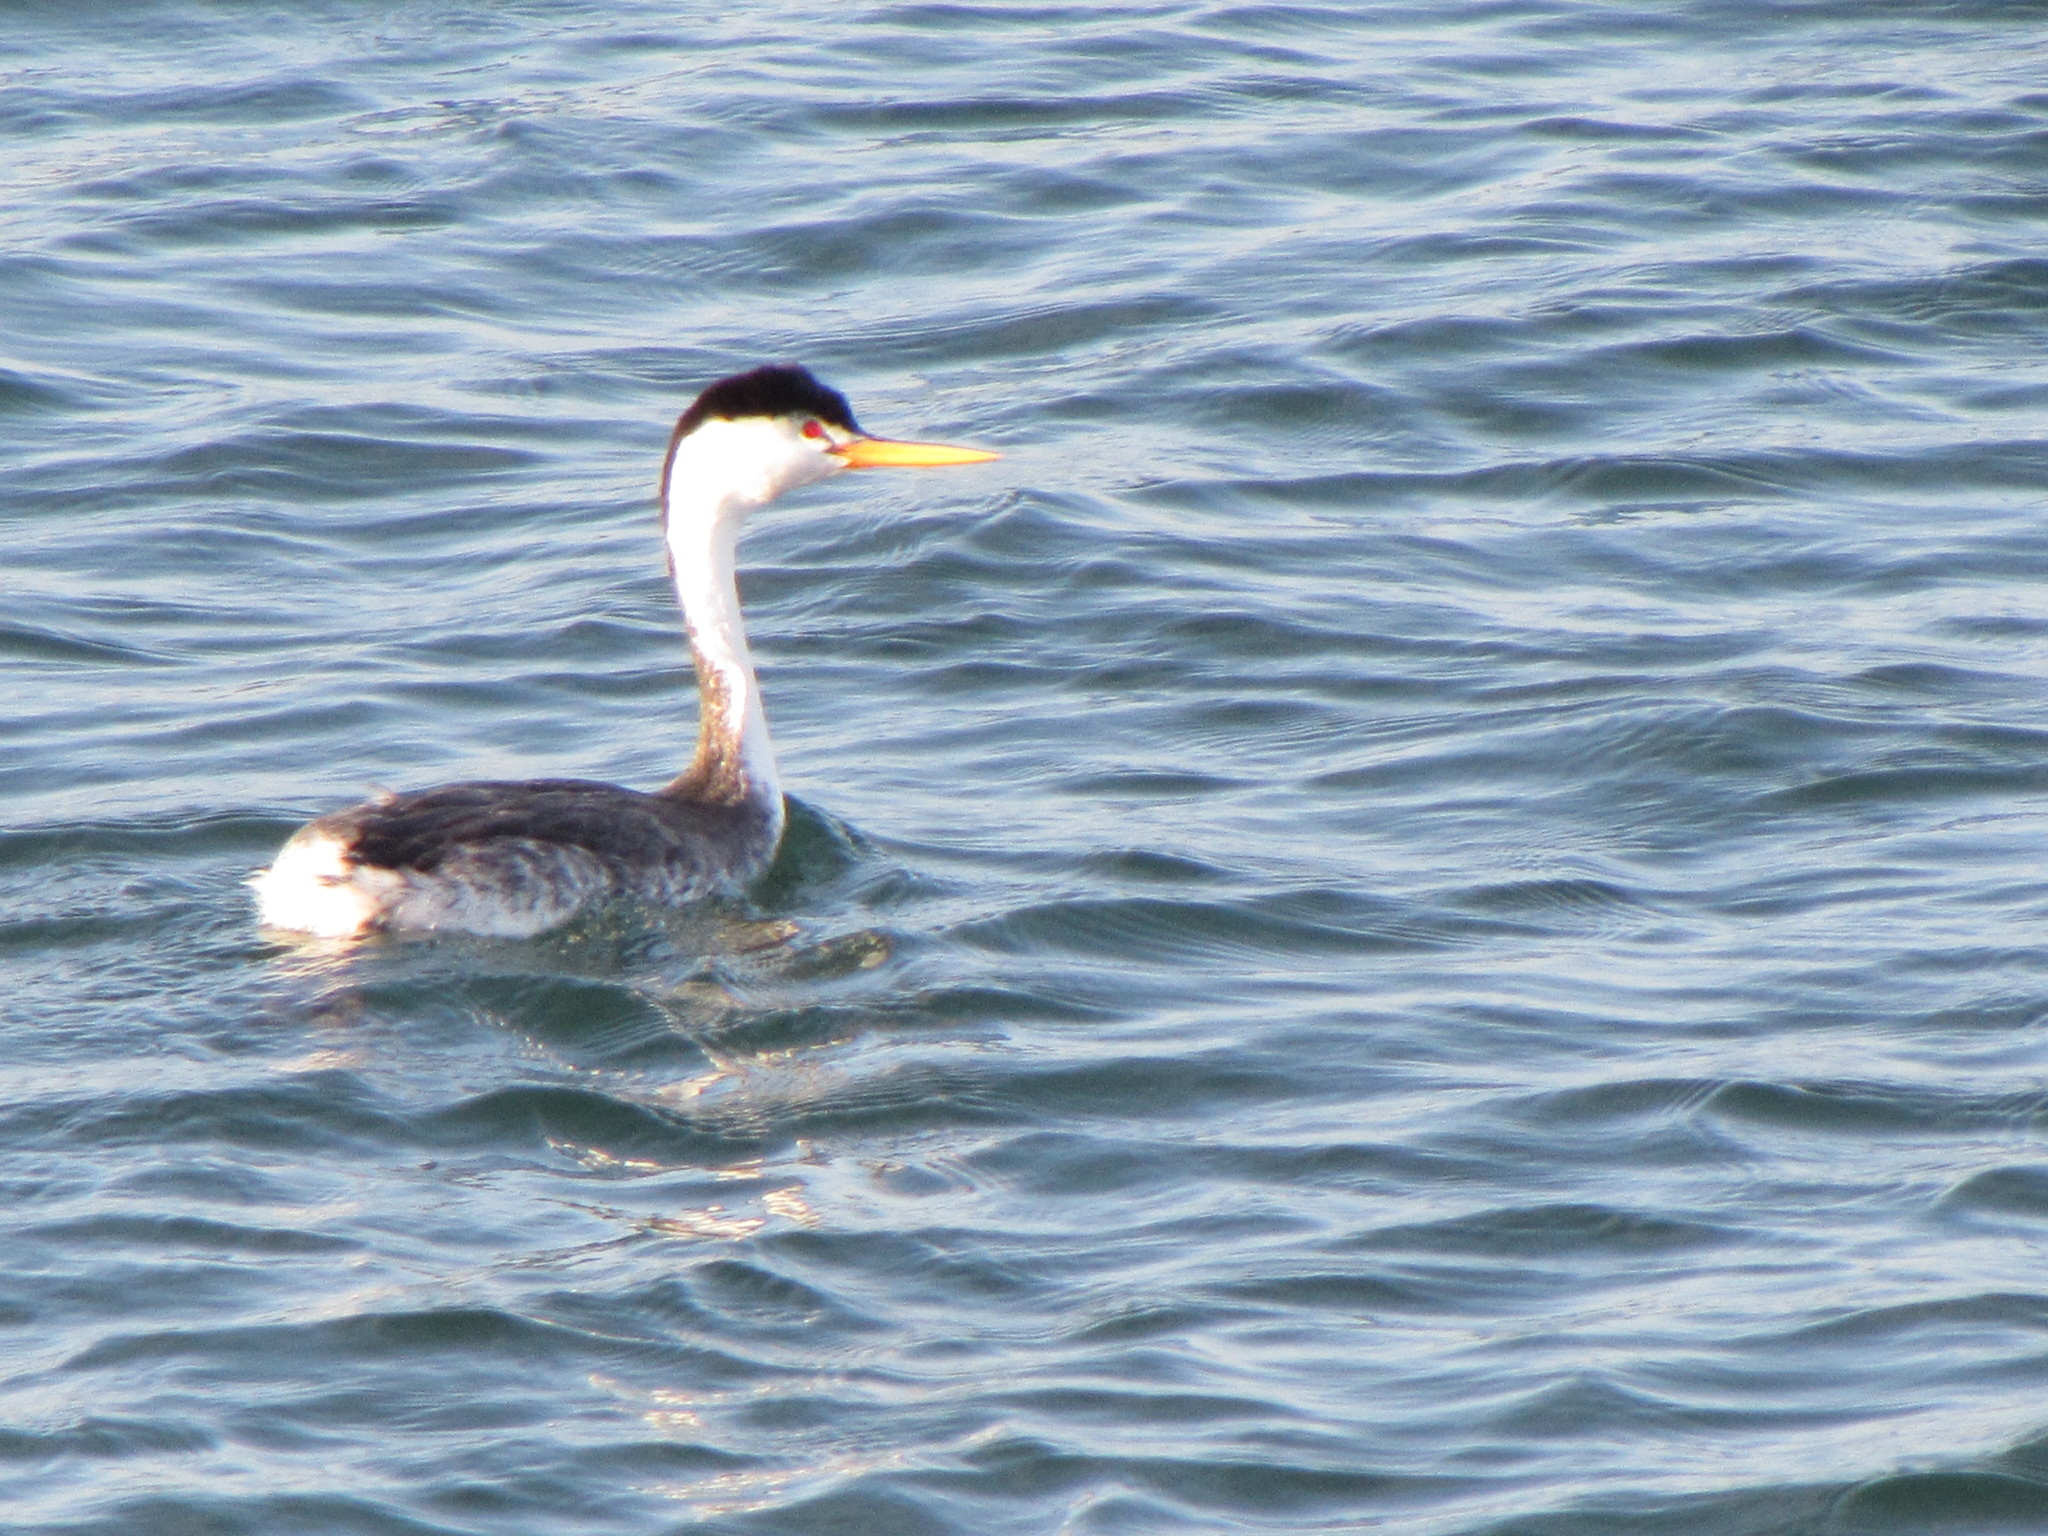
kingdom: Animalia
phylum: Chordata
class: Aves
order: Podicipediformes
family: Podicipedidae
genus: Aechmophorus
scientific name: Aechmophorus clarkii
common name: Clark's grebe
